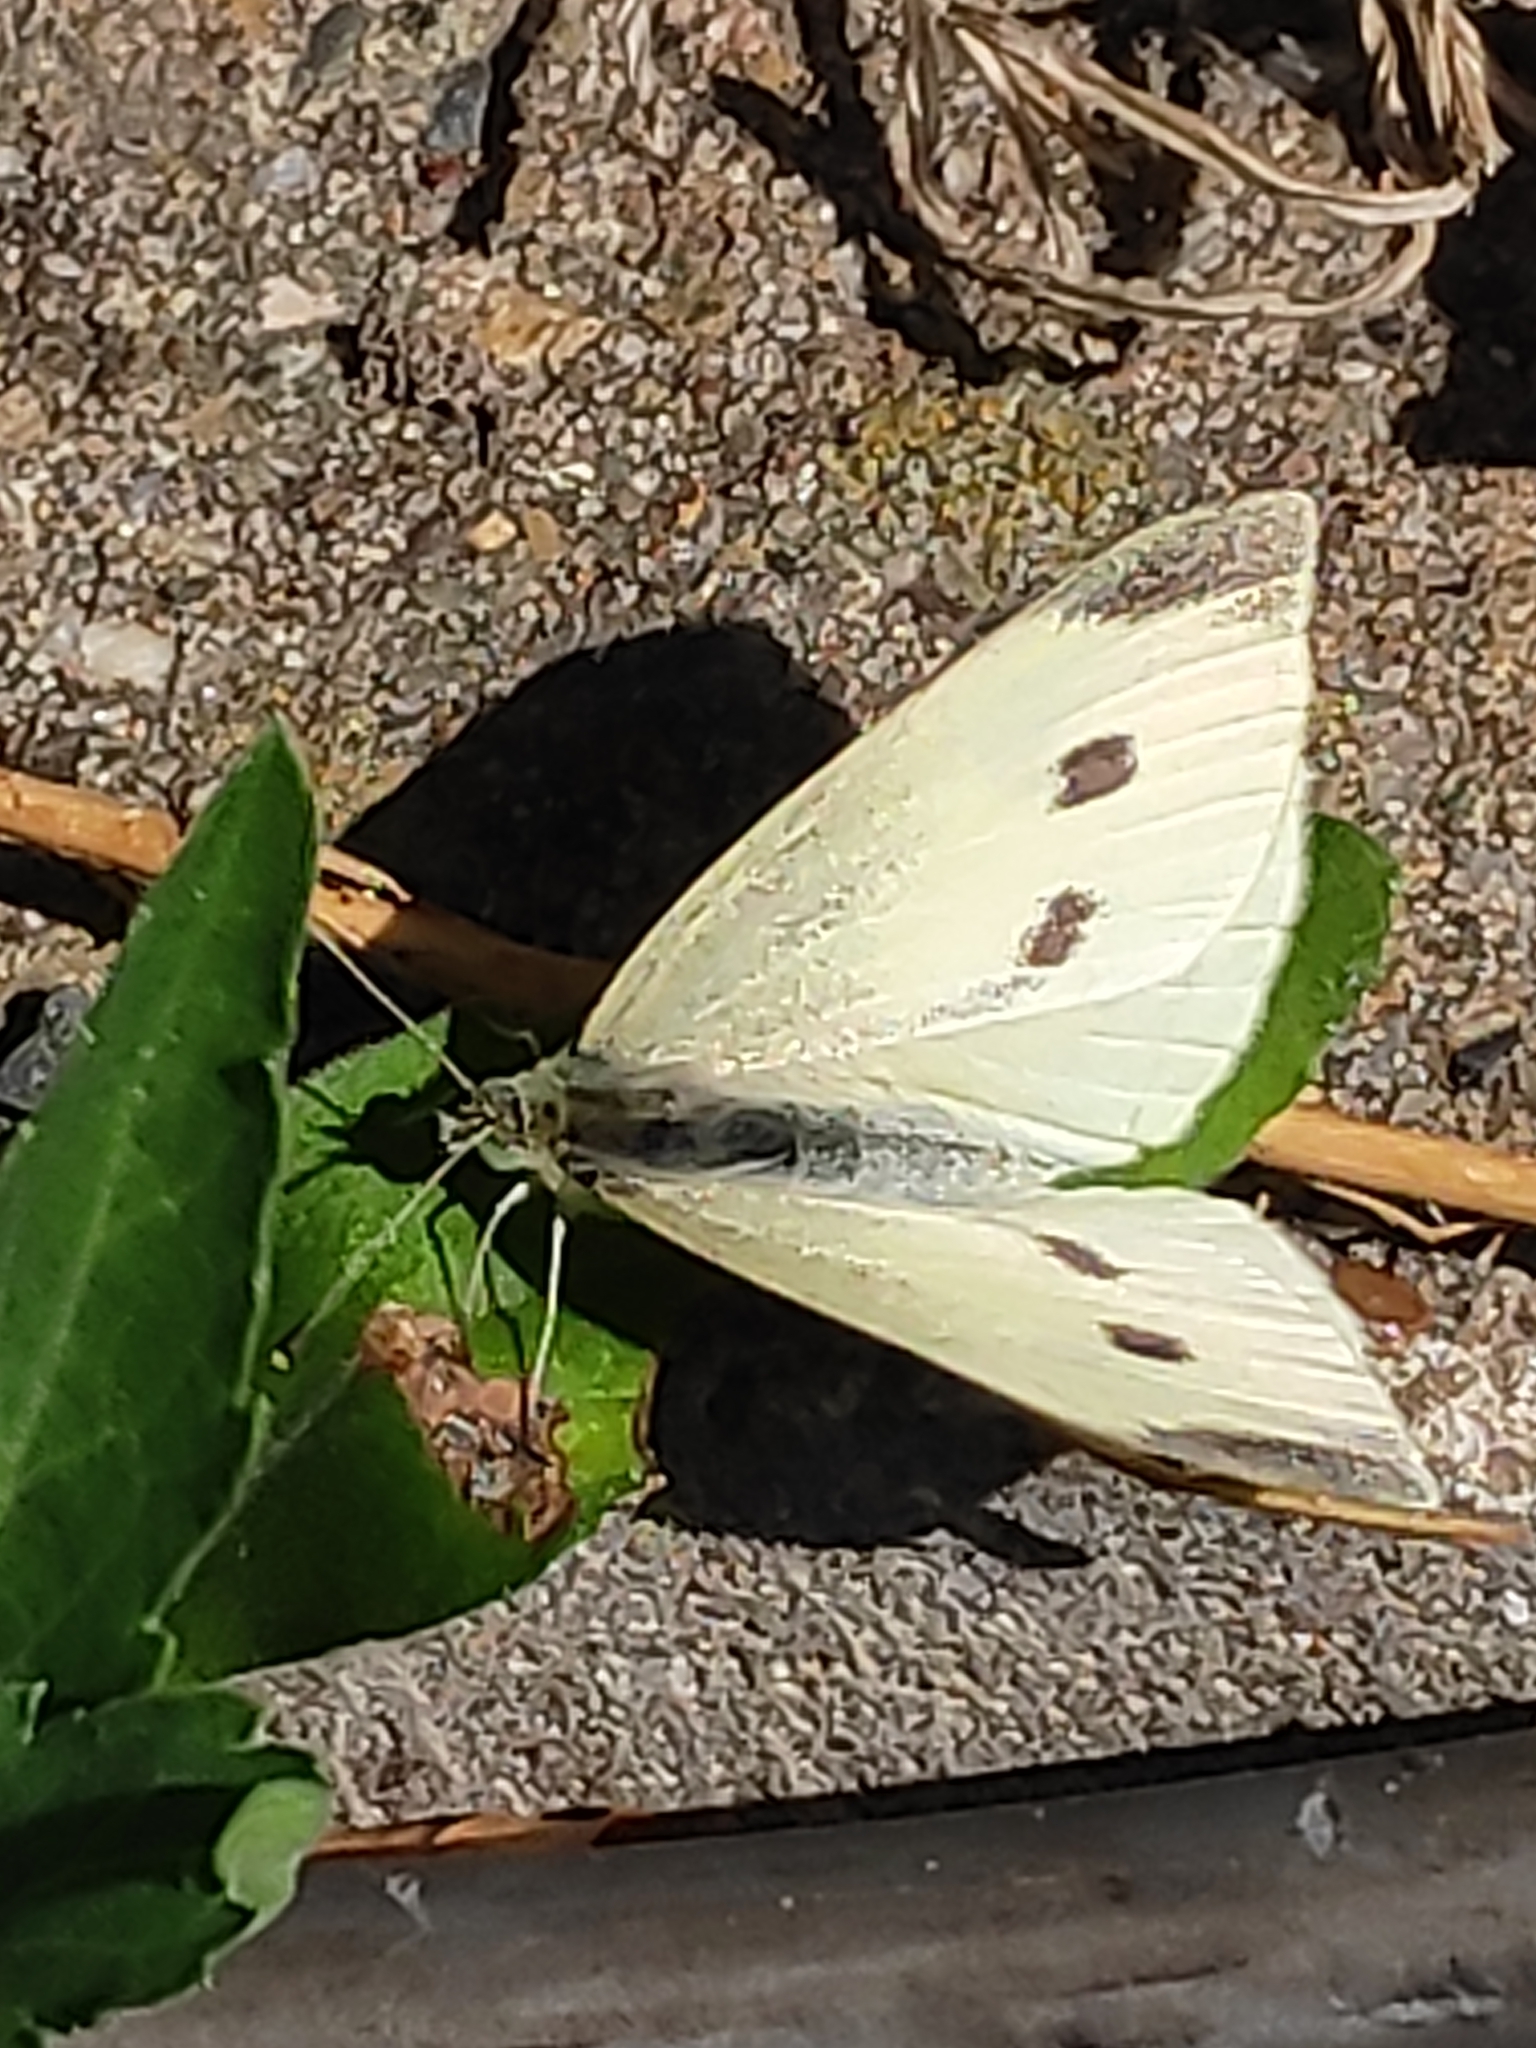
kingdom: Animalia
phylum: Arthropoda
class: Insecta
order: Lepidoptera
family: Pieridae
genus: Pieris
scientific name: Pieris rapae
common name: Small white
